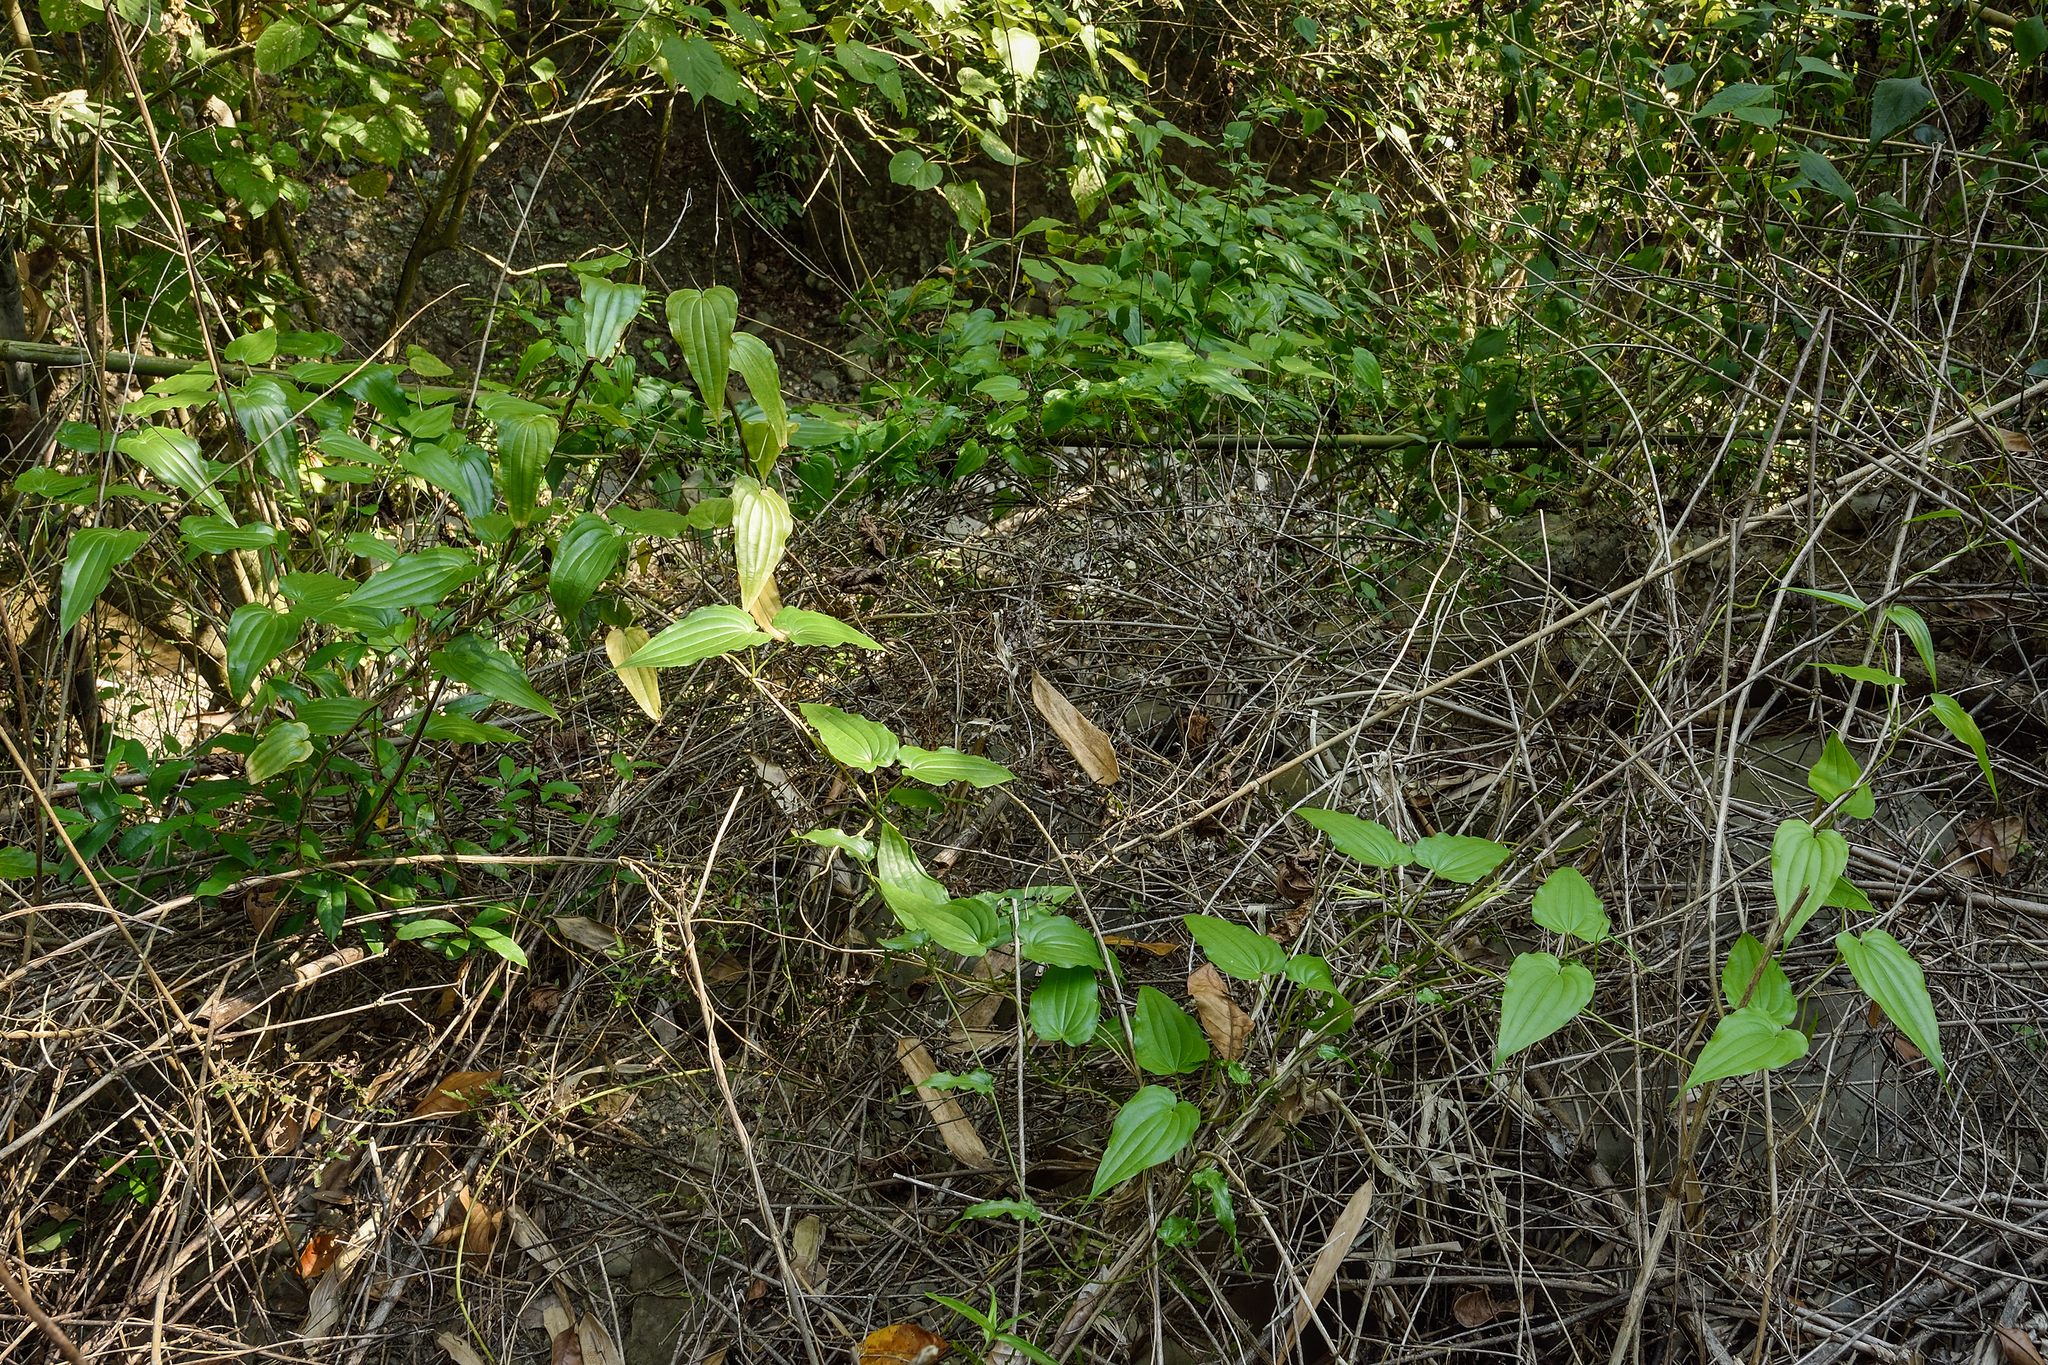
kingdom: Plantae
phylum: Tracheophyta
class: Liliopsida
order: Pandanales
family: Stemonaceae
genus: Stemona
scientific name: Stemona tuberosa
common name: Stemona
